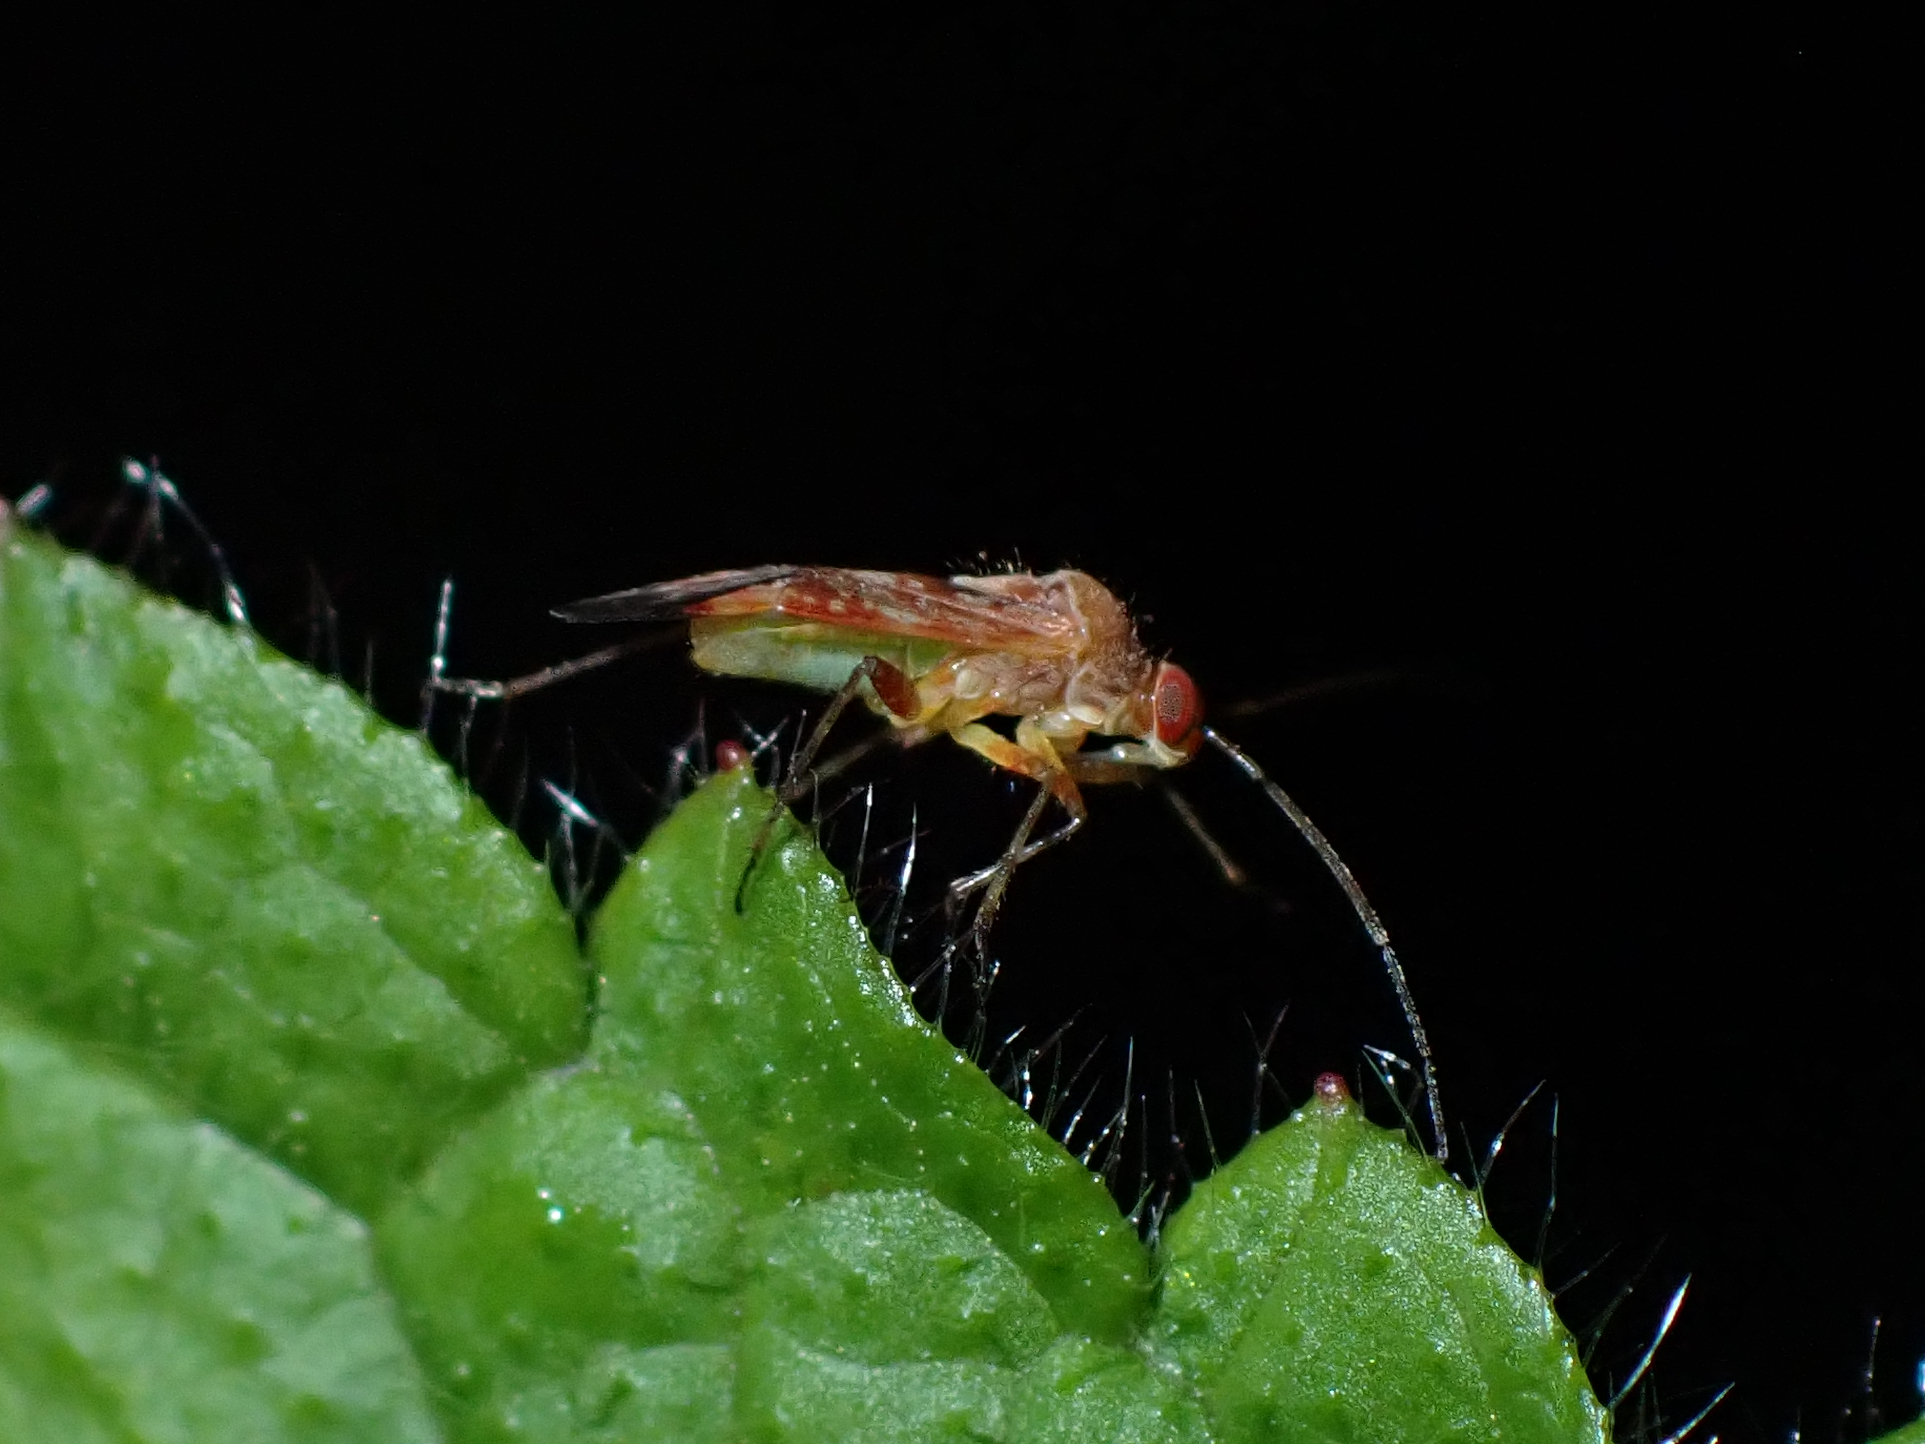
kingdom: Animalia
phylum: Arthropoda
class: Insecta
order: Hemiptera
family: Miridae
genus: Tinginotum
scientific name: Tinginotum minutum
